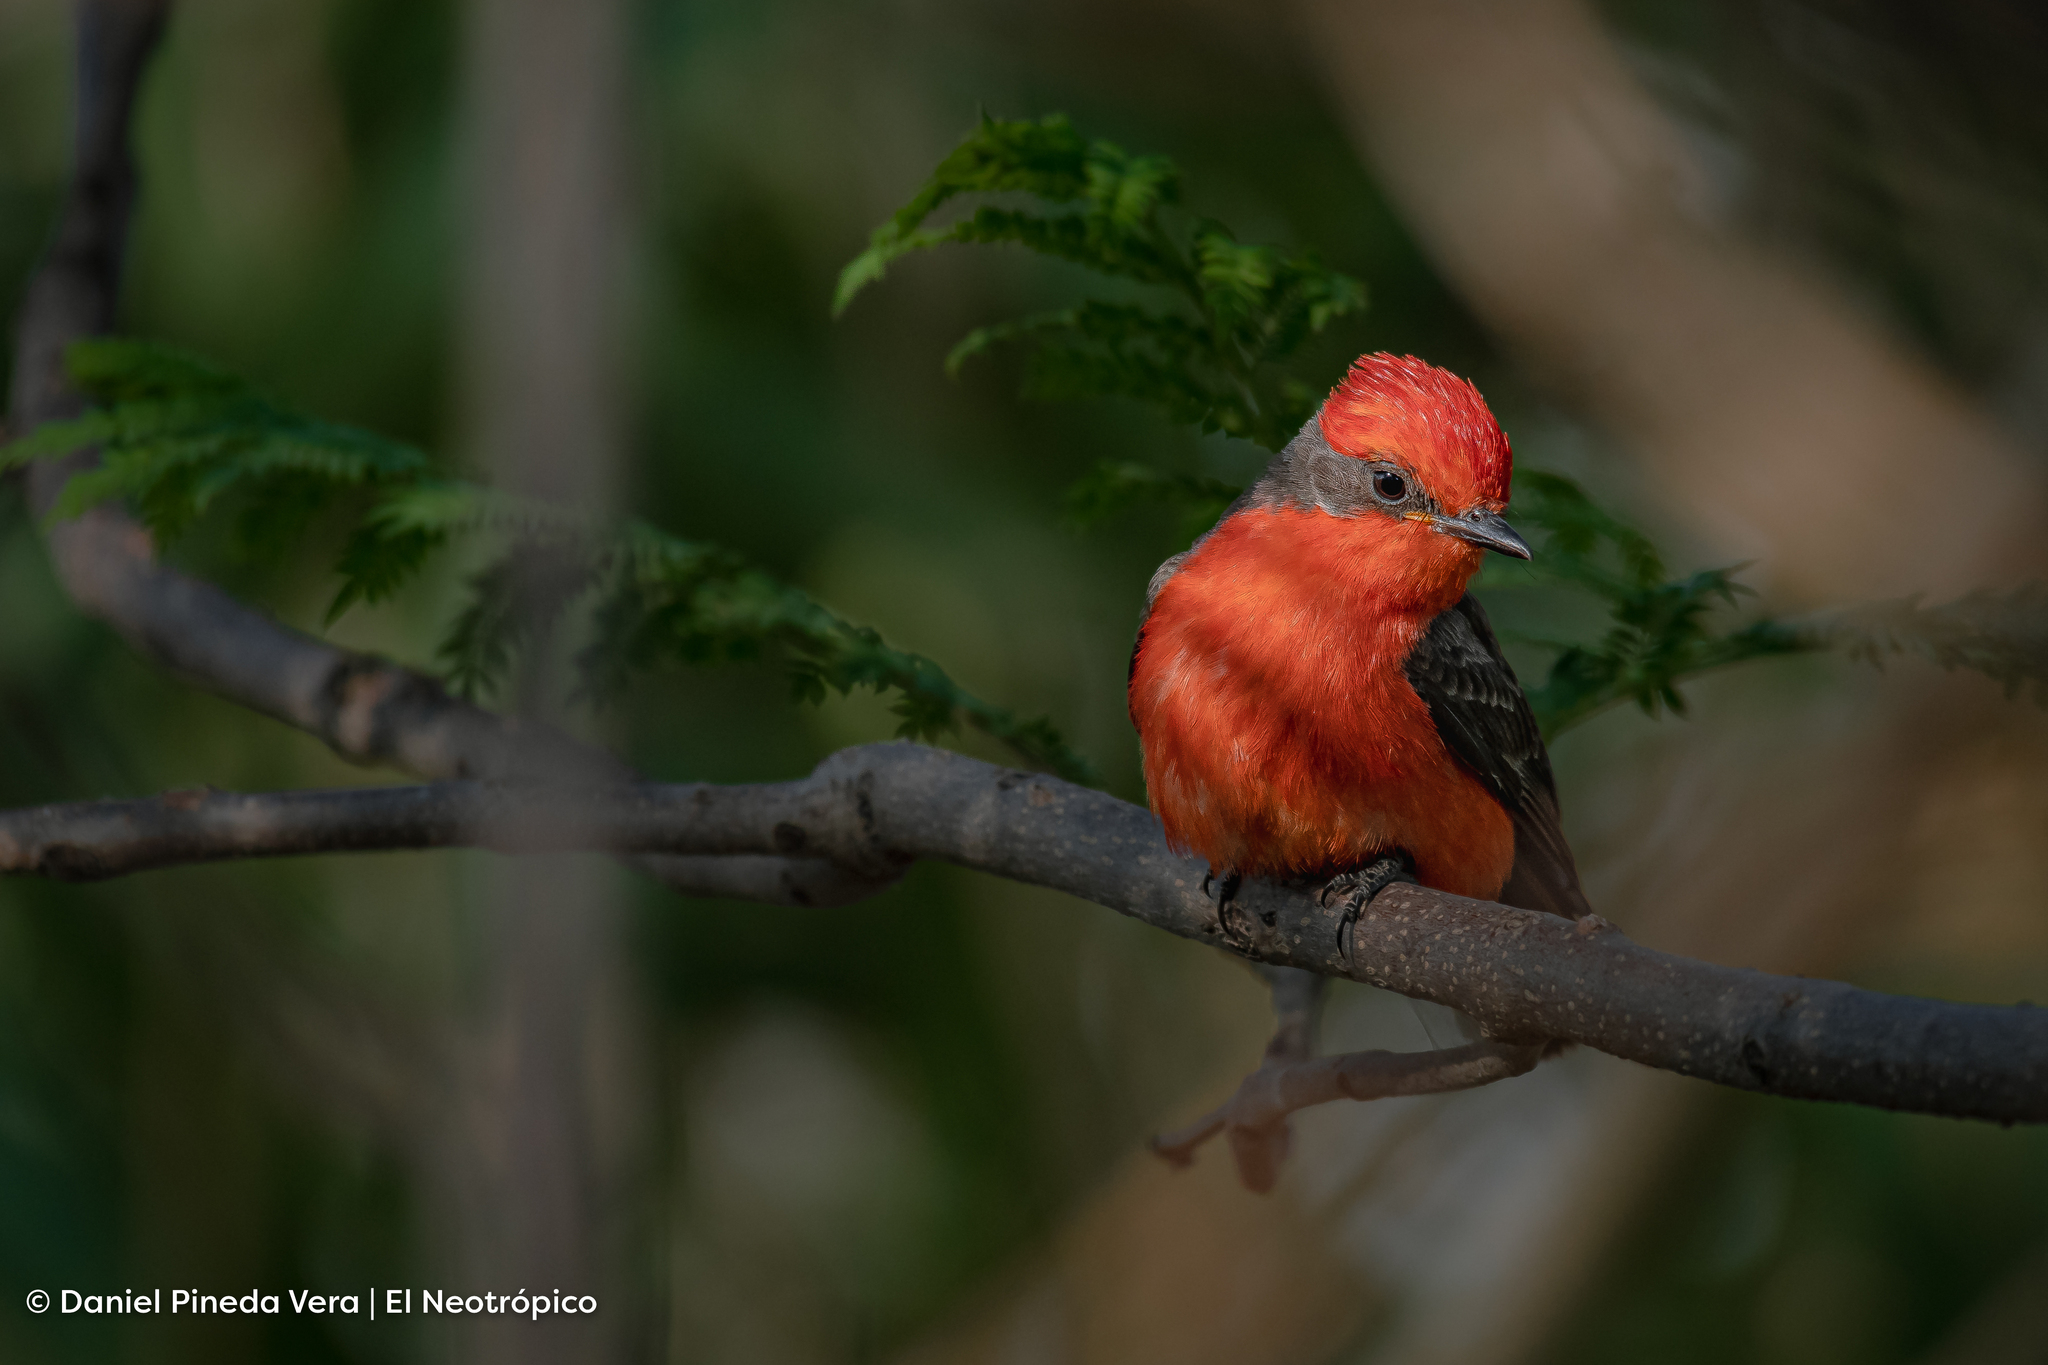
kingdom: Animalia
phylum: Chordata
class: Aves
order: Passeriformes
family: Tyrannidae
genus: Pyrocephalus
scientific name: Pyrocephalus rubinus
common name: Vermilion flycatcher
